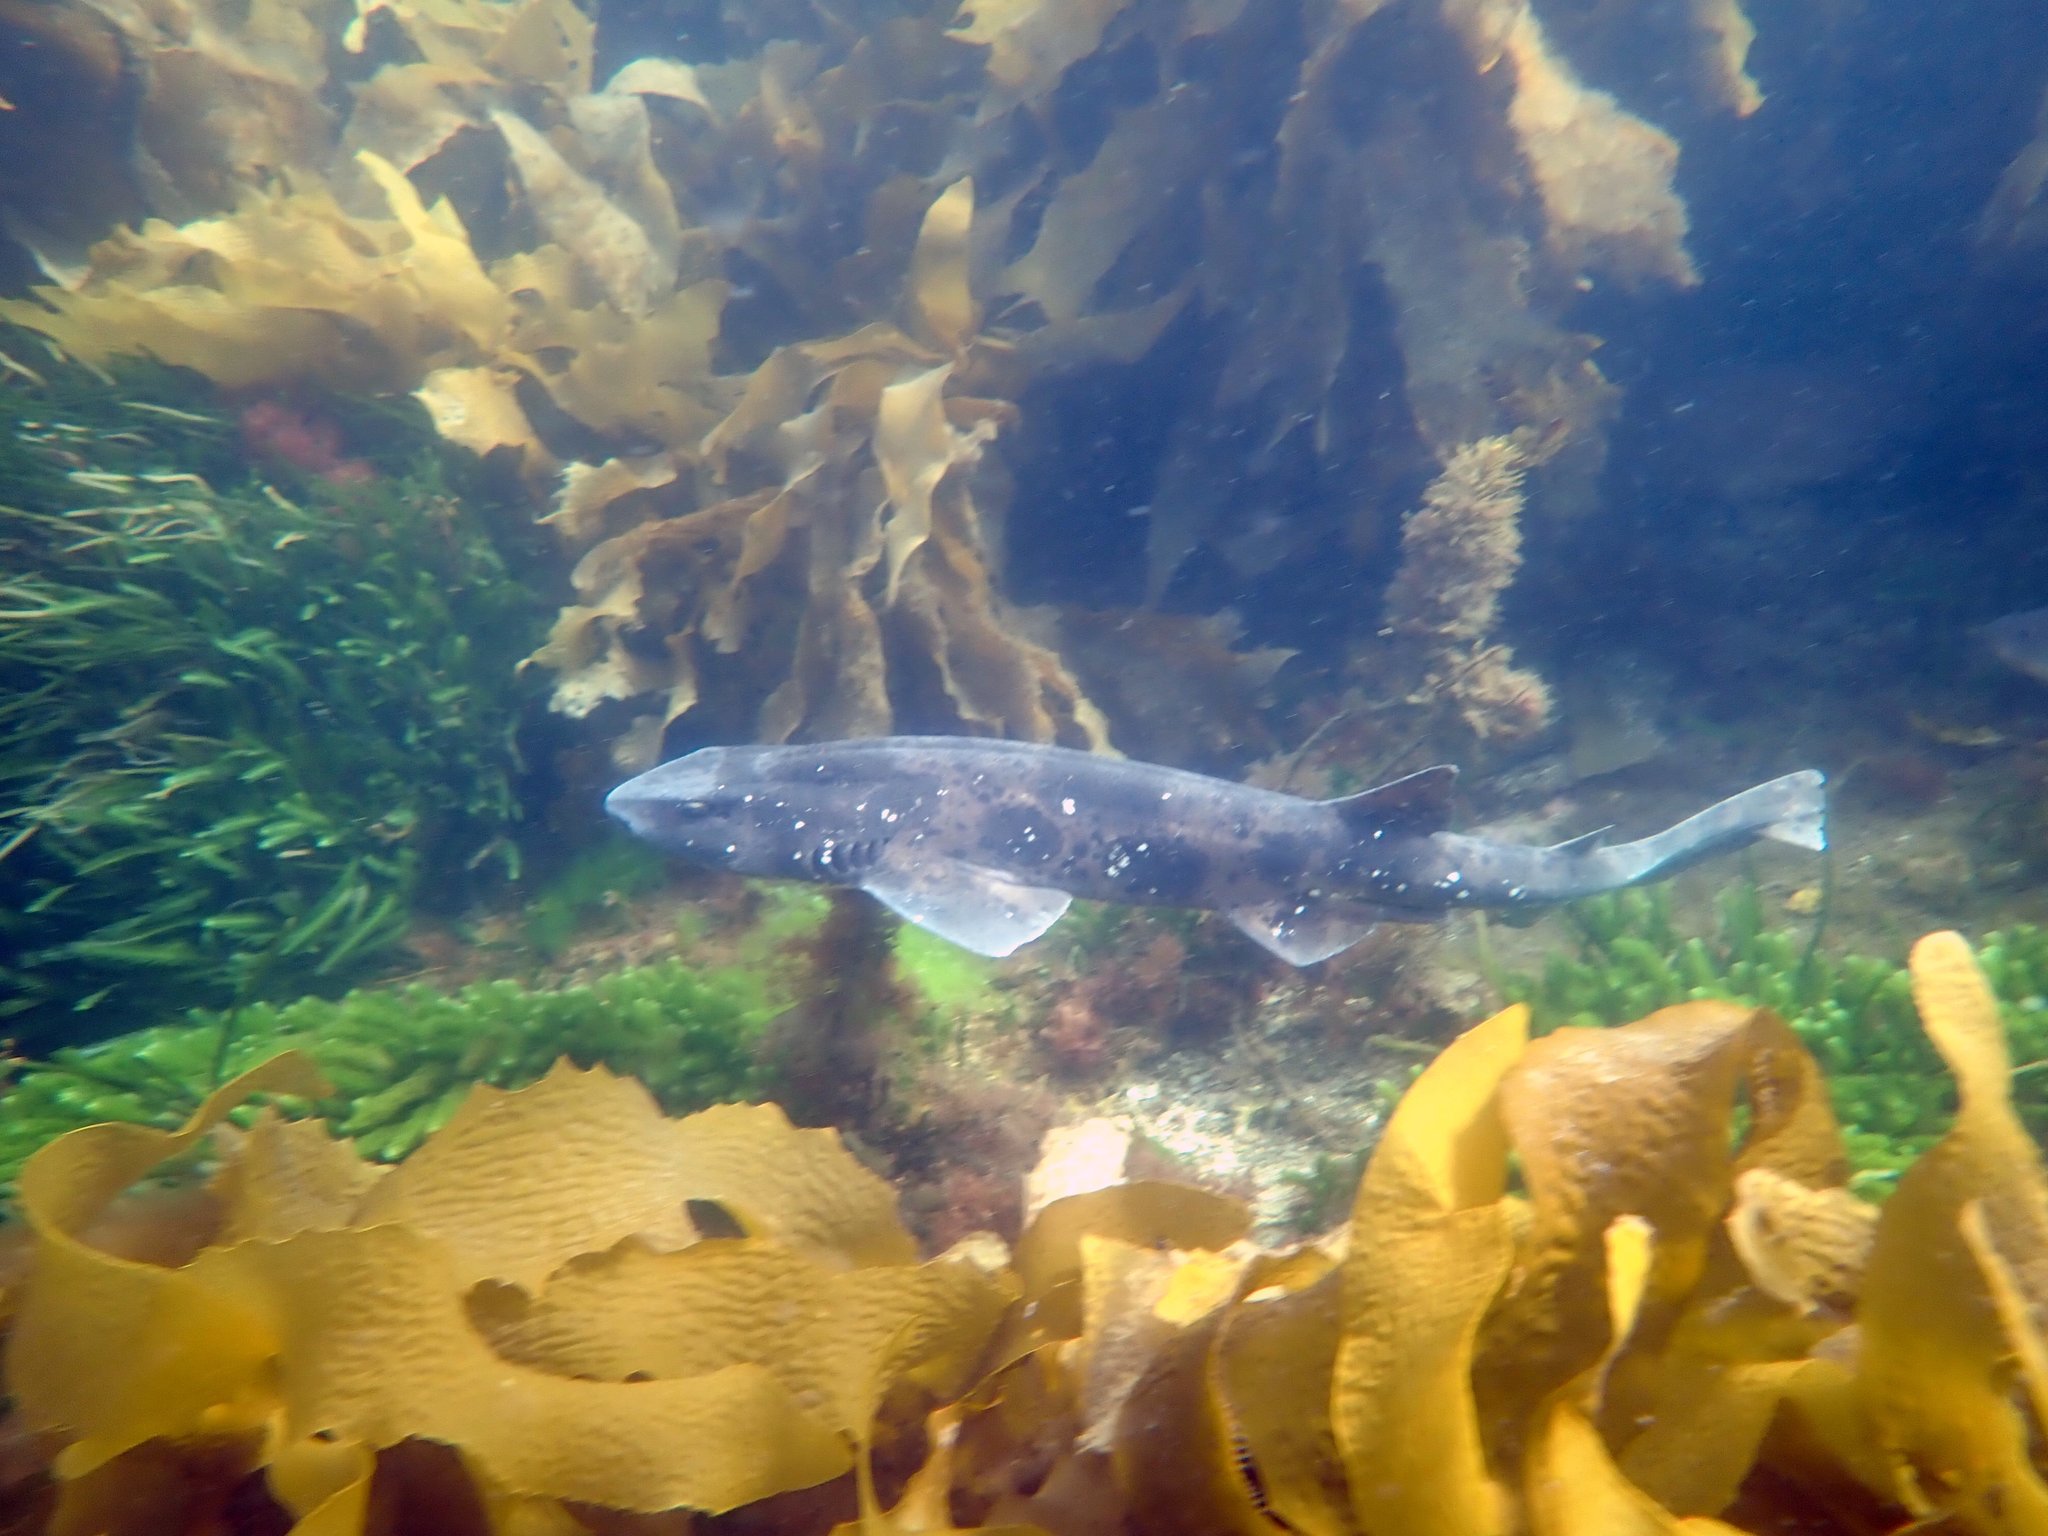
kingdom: Animalia
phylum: Chordata
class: Elasmobranchii
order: Carcharhiniformes
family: Scyliorhinidae
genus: Cephaloscyllium
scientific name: Cephaloscyllium laticeps
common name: Australian swellshark
